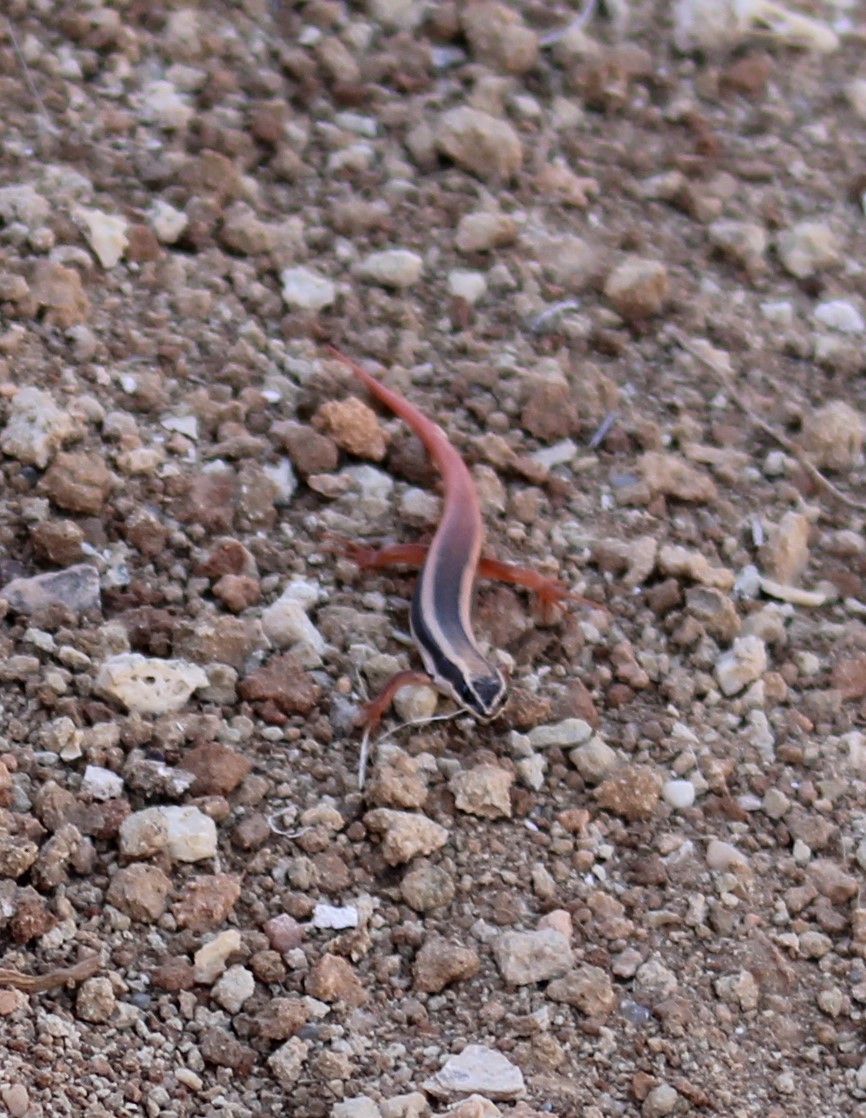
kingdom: Animalia
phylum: Chordata
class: Squamata
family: Scincidae
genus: Morethia
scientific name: Morethia ruficauda
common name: Lined firetail skink
